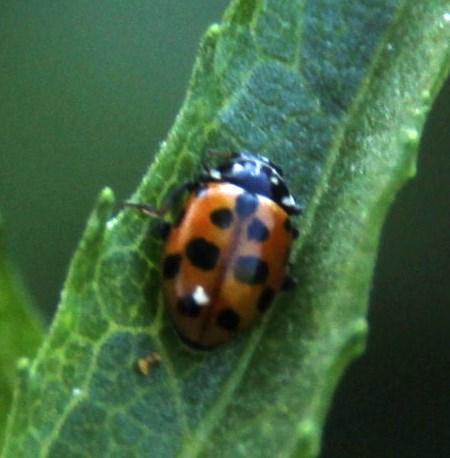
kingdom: Animalia
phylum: Arthropoda
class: Insecta
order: Coleoptera
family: Coccinellidae
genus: Hippodamia
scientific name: Hippodamia variegata
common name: Ladybird beetle
